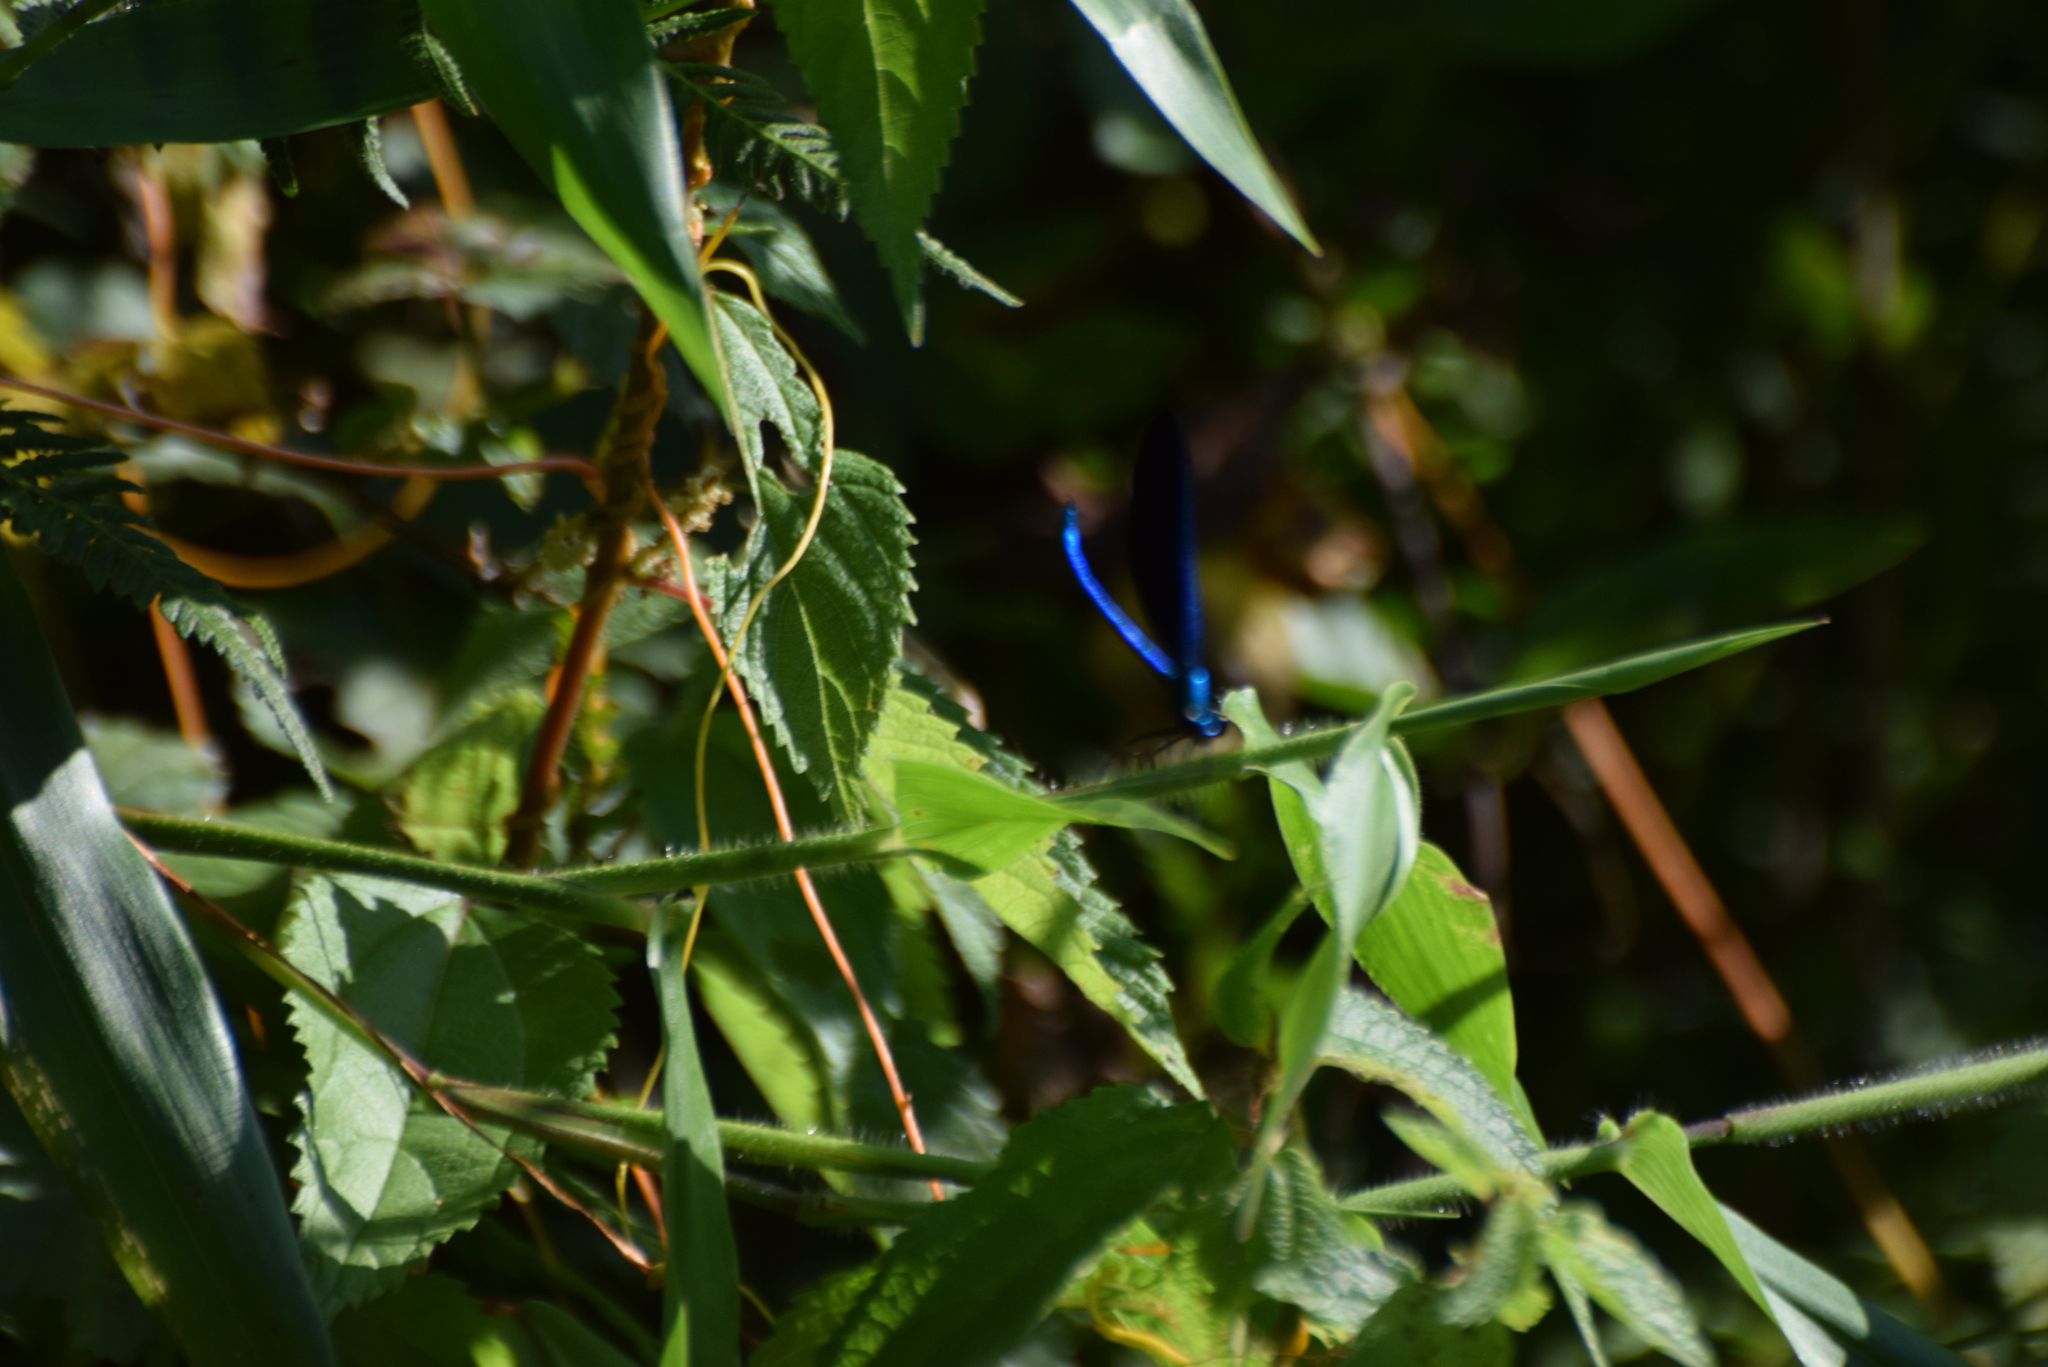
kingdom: Animalia
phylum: Arthropoda
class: Insecta
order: Odonata
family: Calopterygidae
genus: Calopteryx
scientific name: Calopteryx maculata
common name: Ebony jewelwing
